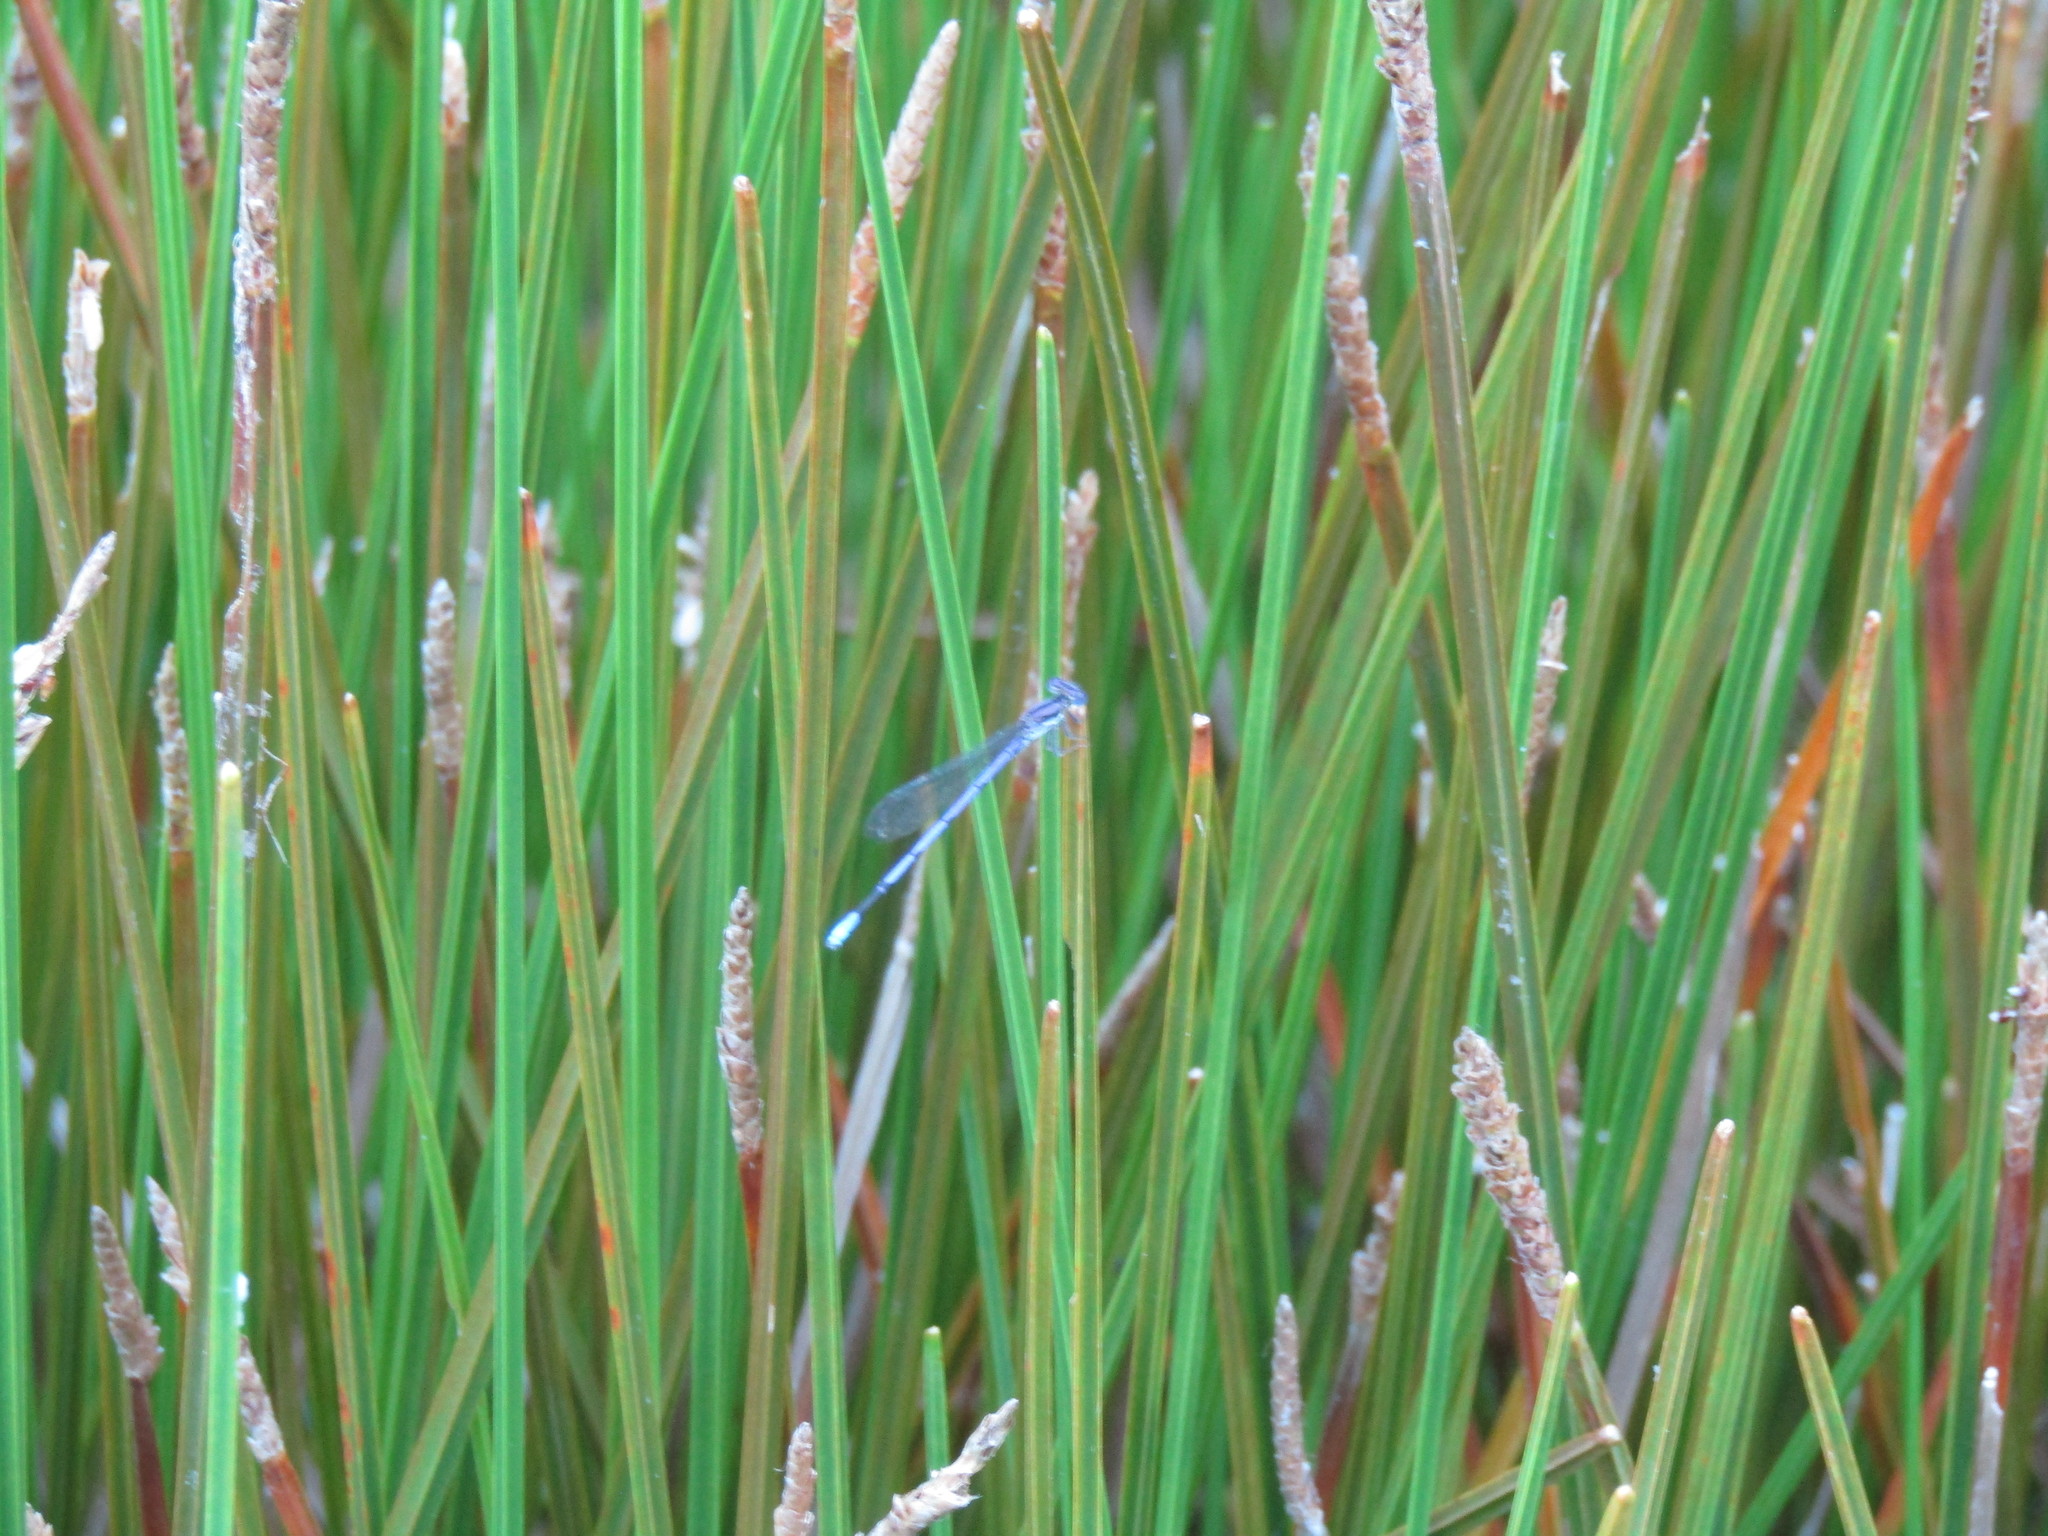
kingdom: Animalia
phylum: Arthropoda
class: Insecta
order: Odonata
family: Coenagrionidae
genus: Argia
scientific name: Argia fumipennis
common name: Variable dancer
